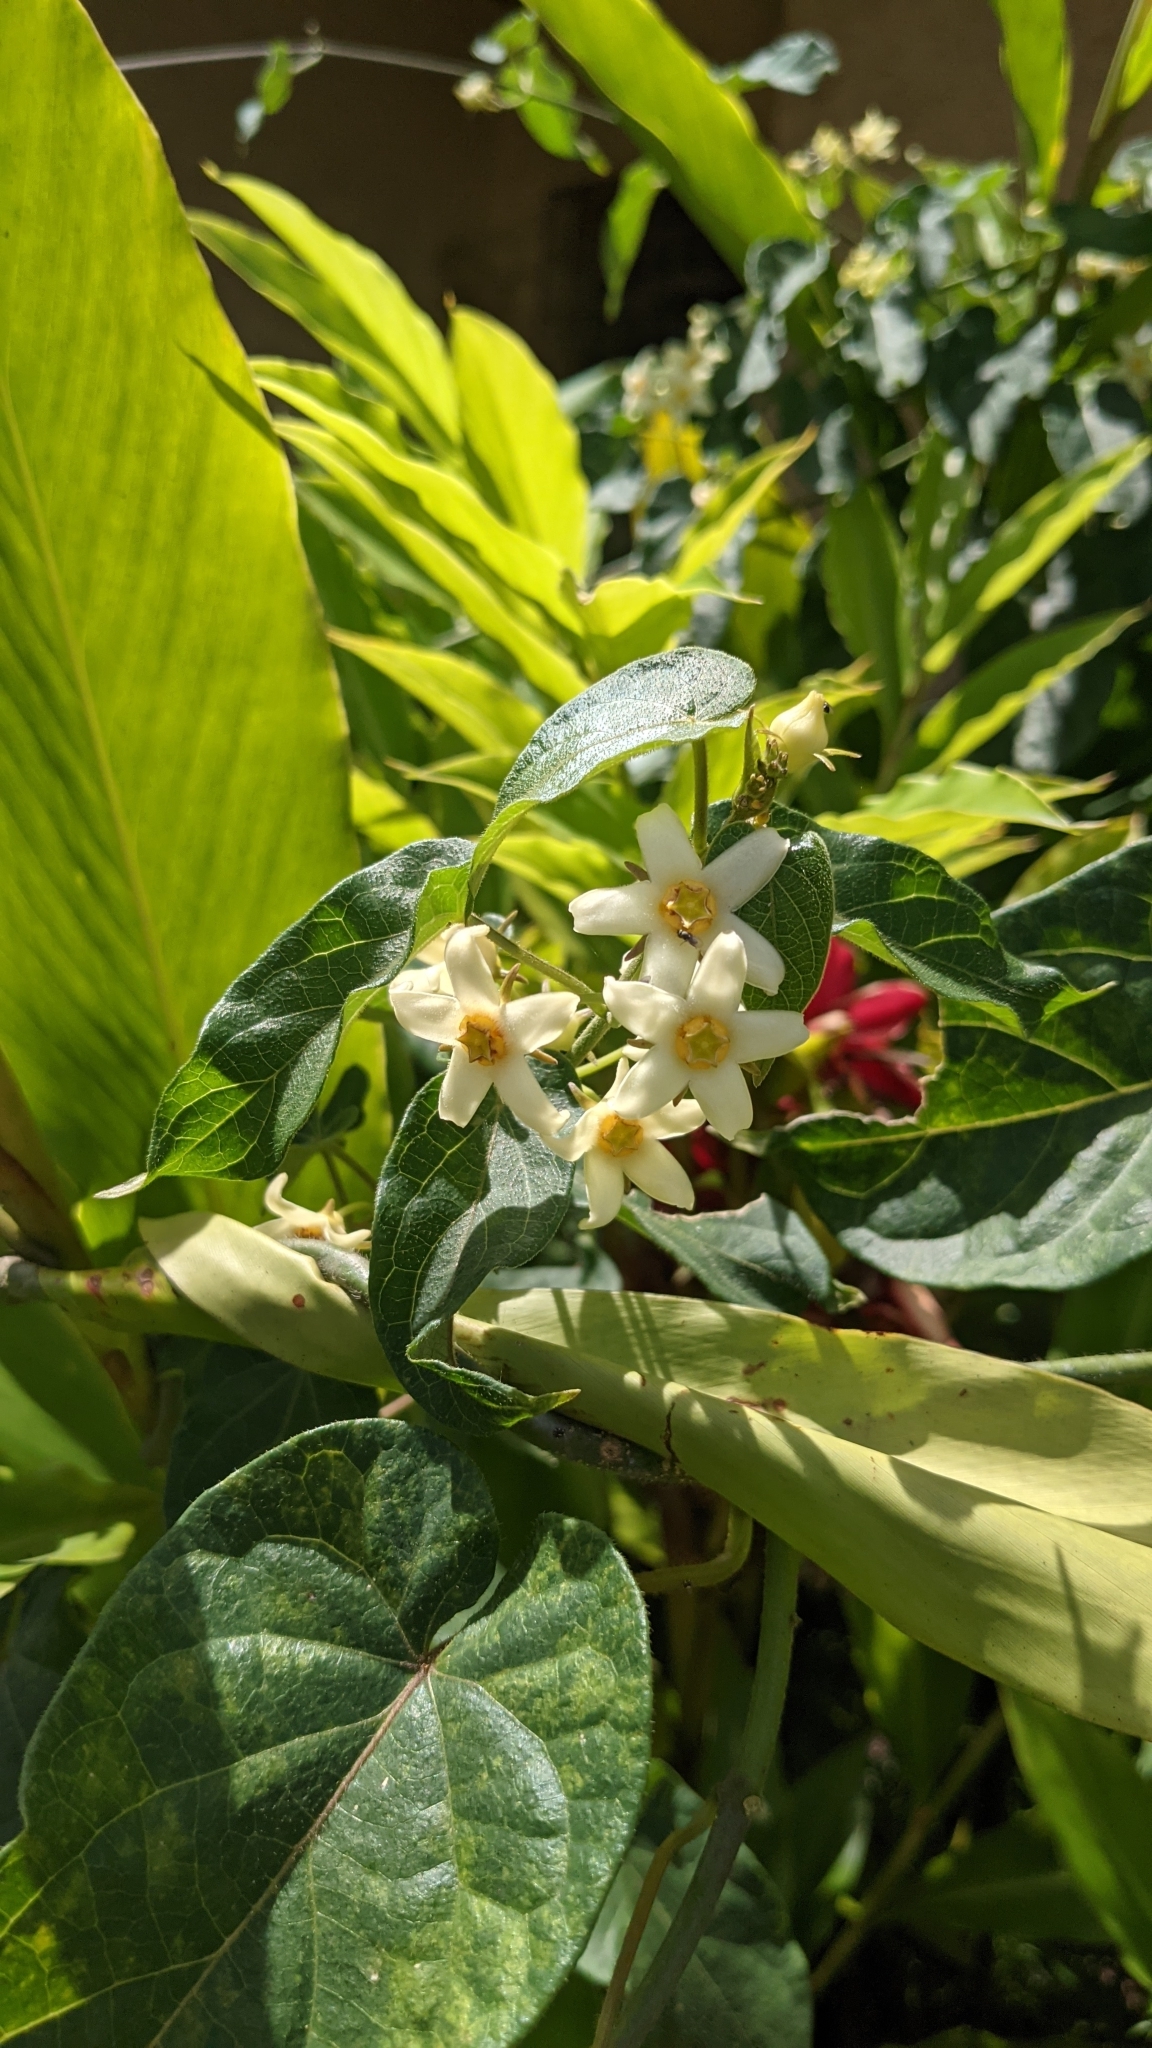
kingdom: Plantae
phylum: Tracheophyta
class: Magnoliopsida
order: Gentianales
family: Apocynaceae
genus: Gonolobus
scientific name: Gonolobus edulis
